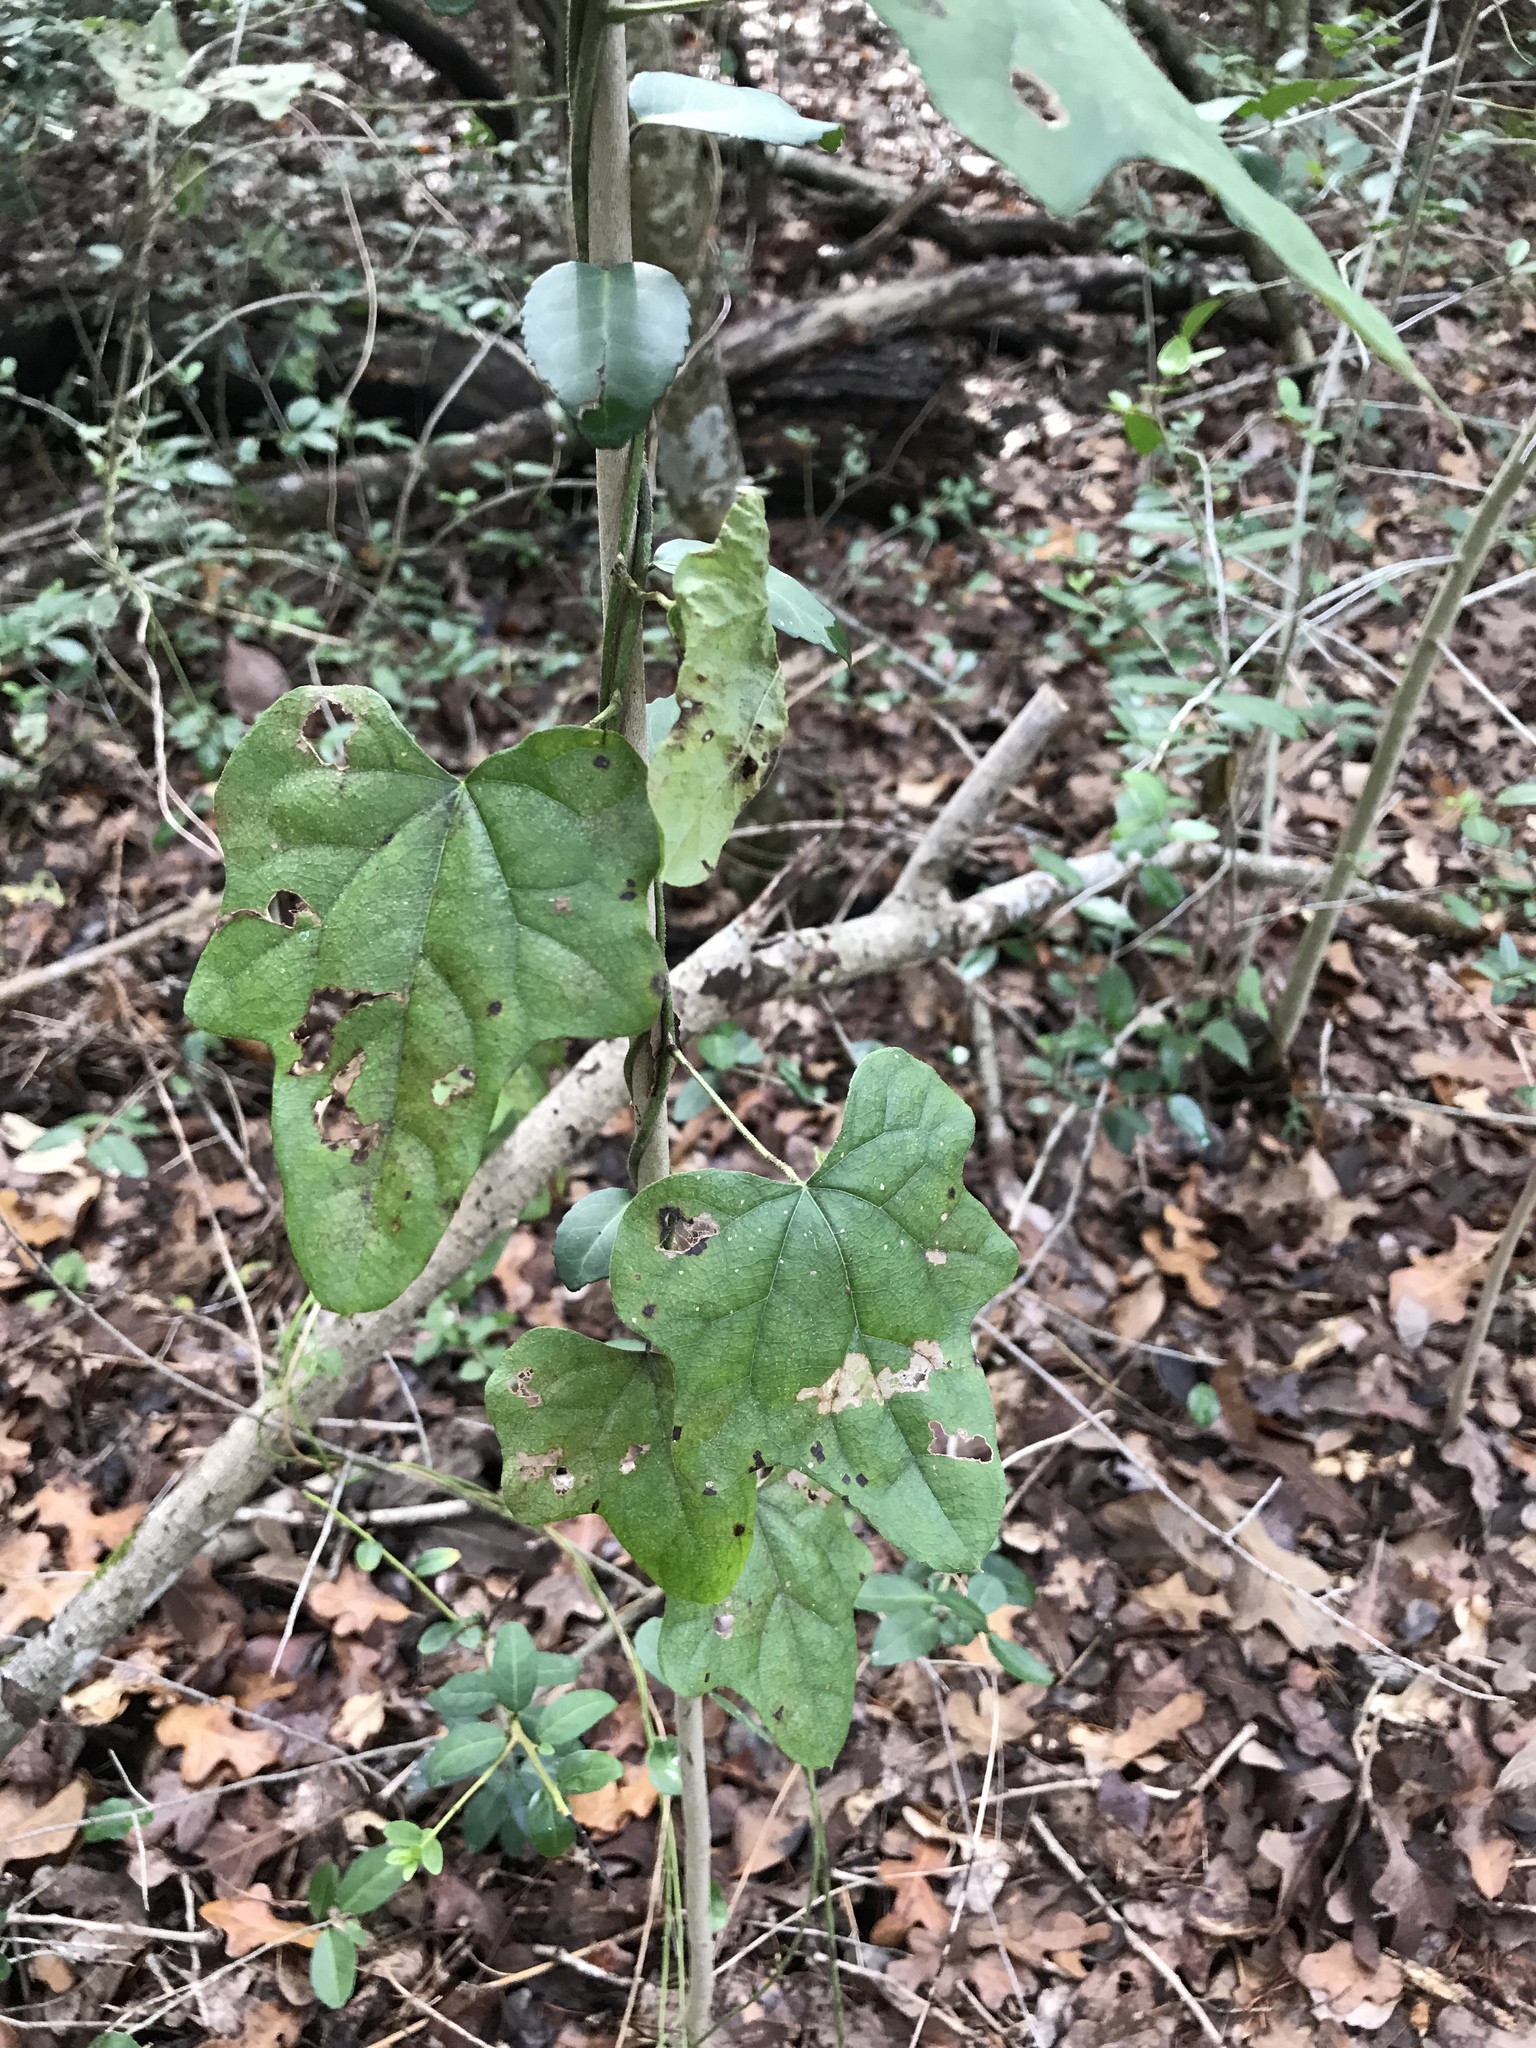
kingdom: Plantae
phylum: Tracheophyta
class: Magnoliopsida
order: Ranunculales
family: Menispermaceae
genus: Cocculus
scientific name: Cocculus carolinus
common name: Carolina moonseed
